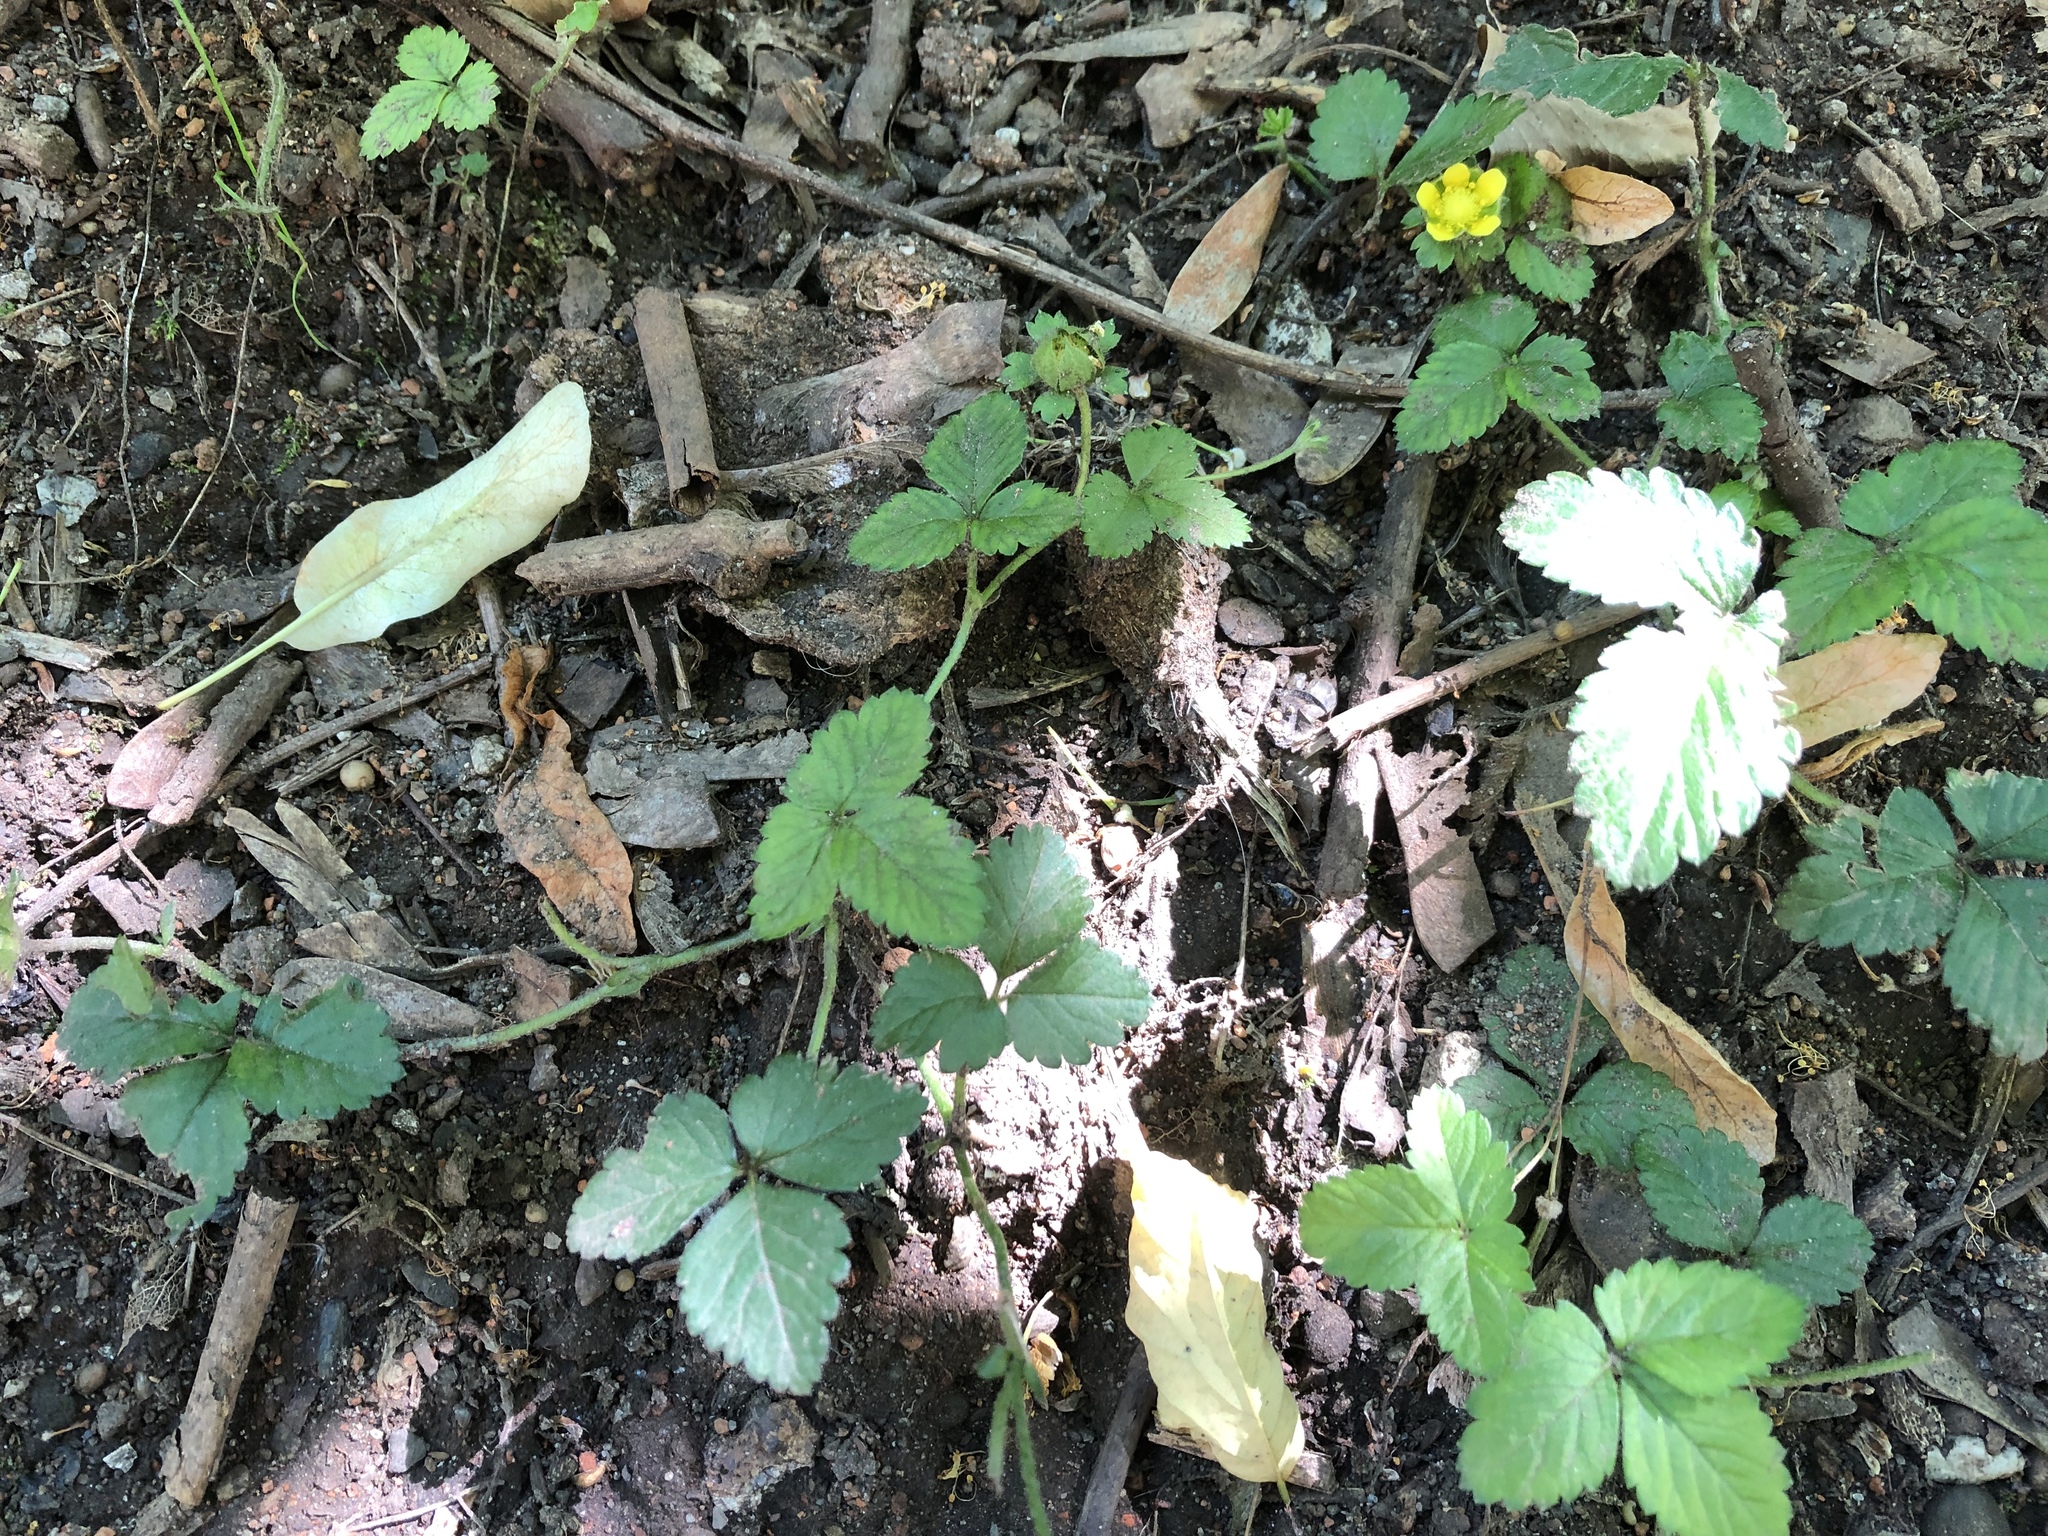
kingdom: Plantae
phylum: Tracheophyta
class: Magnoliopsida
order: Rosales
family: Rosaceae
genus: Potentilla
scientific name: Potentilla indica
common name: Yellow-flowered strawberry
